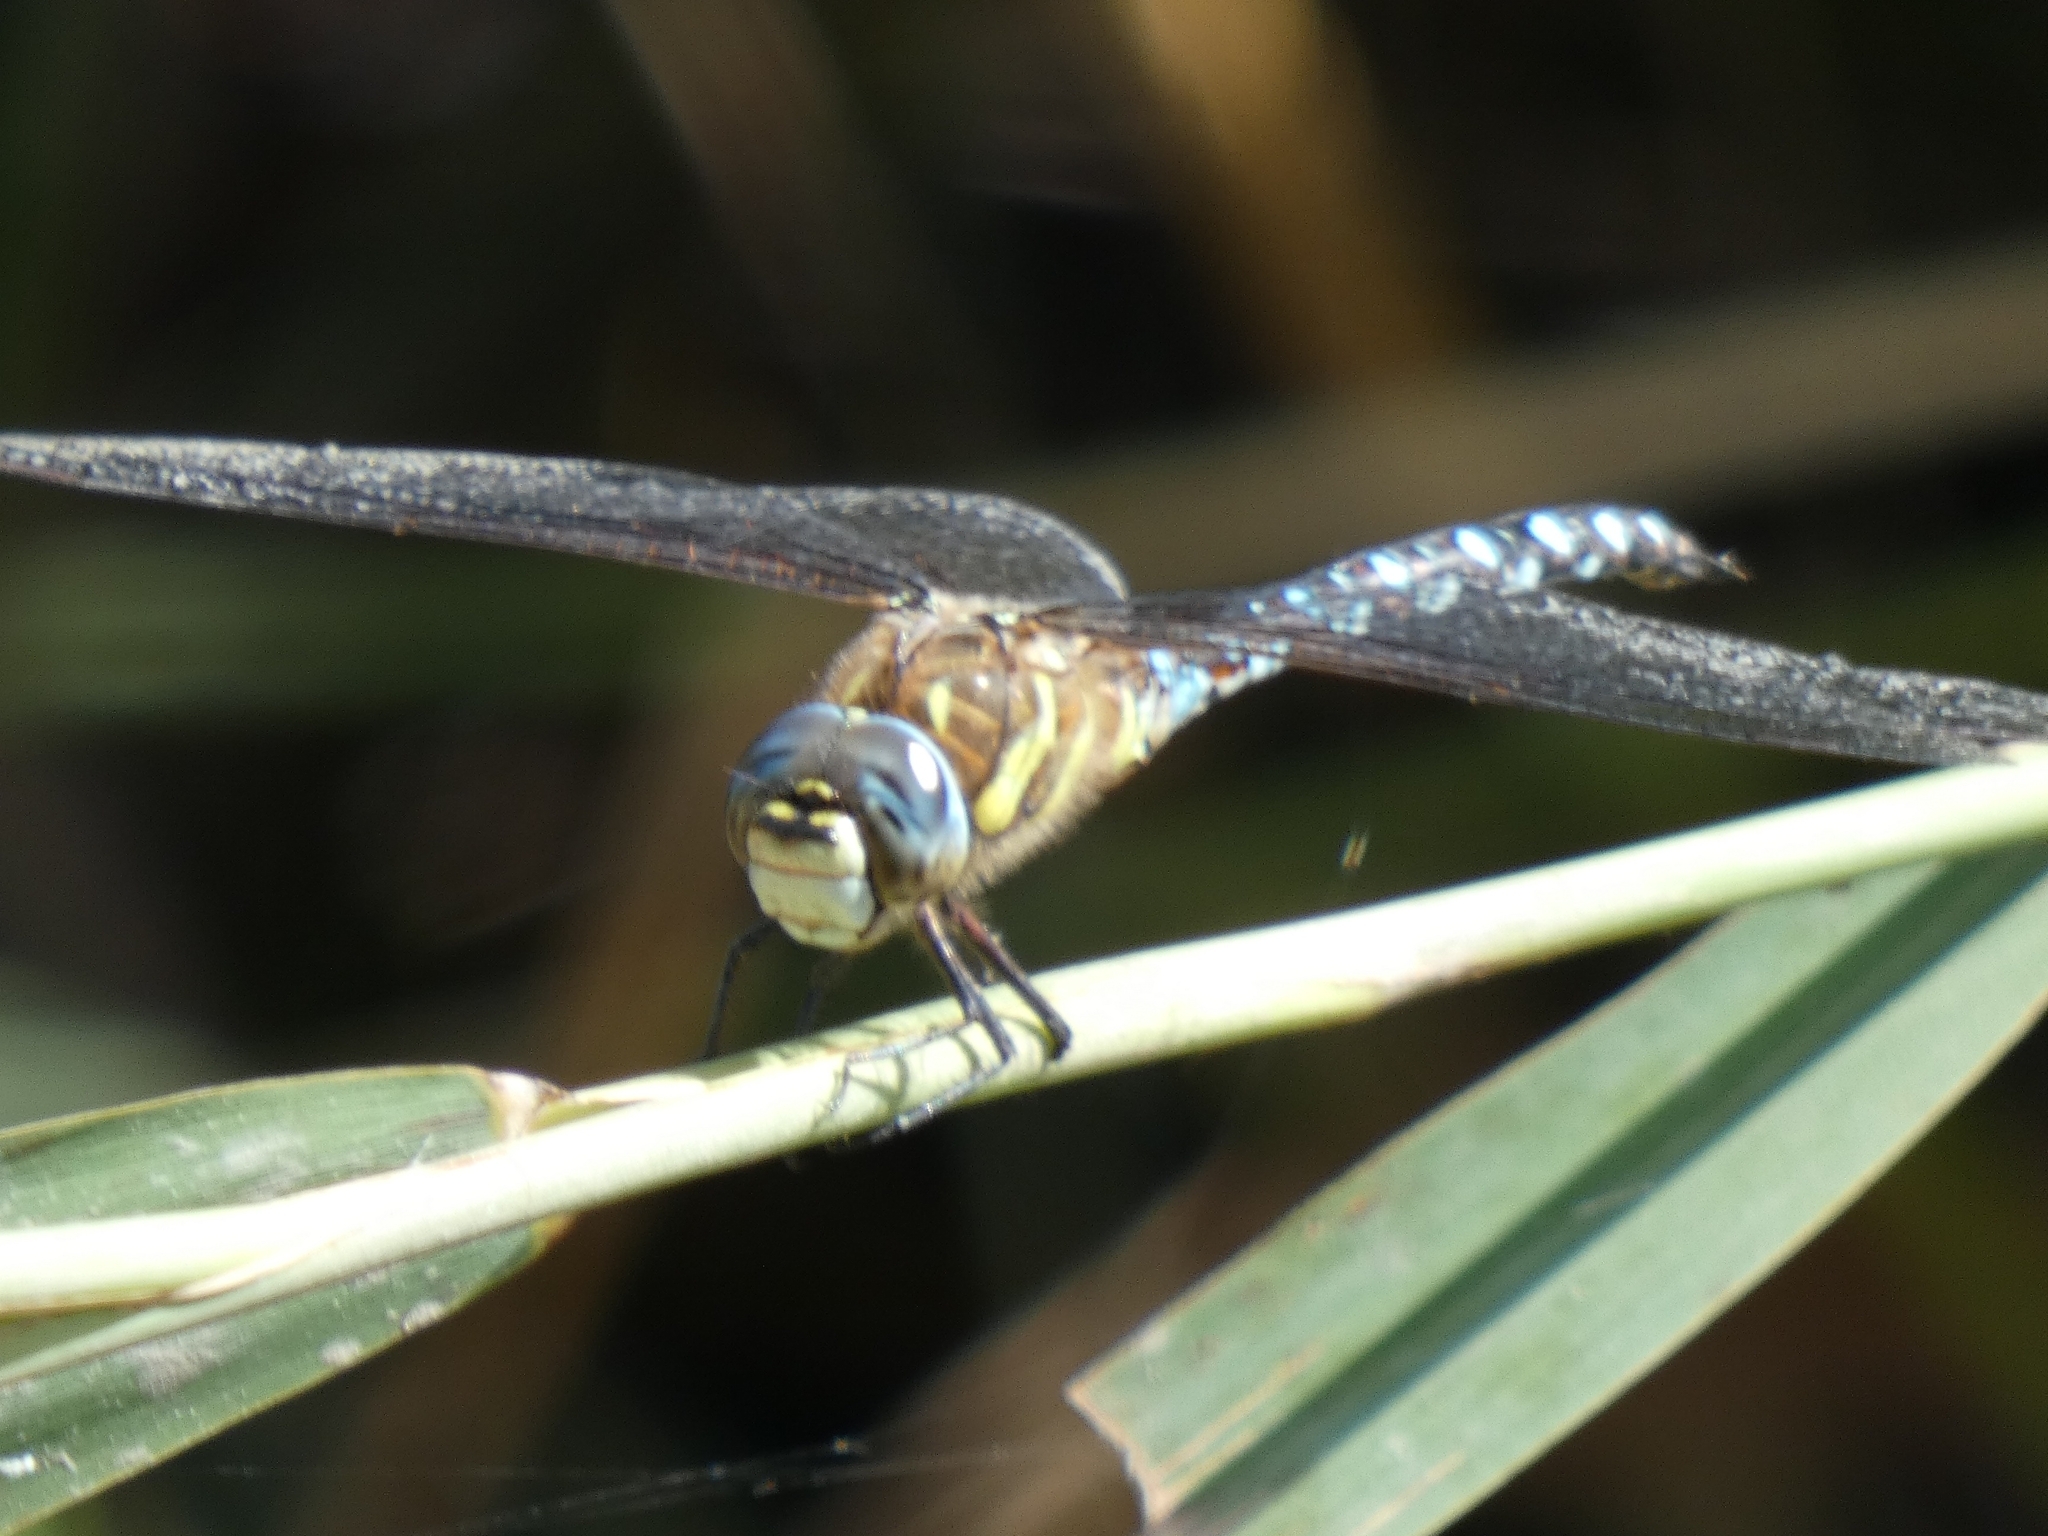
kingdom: Animalia
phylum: Arthropoda
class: Insecta
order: Odonata
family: Aeshnidae
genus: Aeshna
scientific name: Aeshna mixta
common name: Migrant hawker
